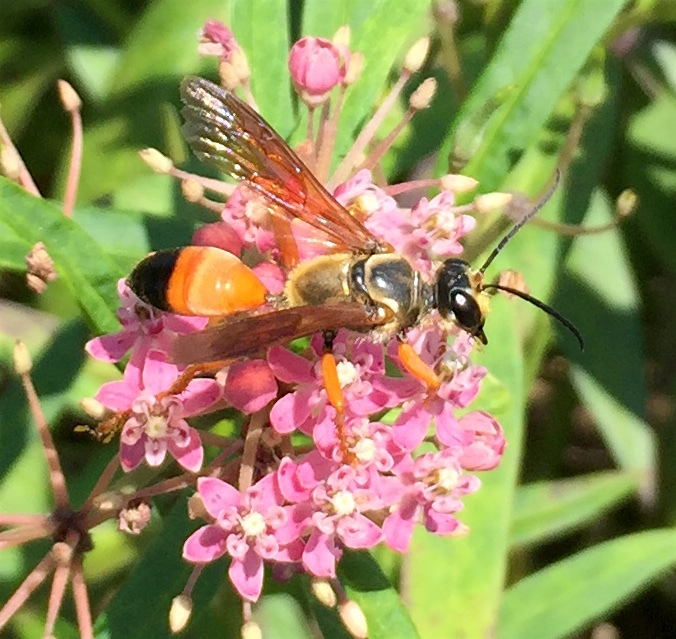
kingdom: Animalia
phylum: Arthropoda
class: Insecta
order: Hymenoptera
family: Sphecidae
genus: Sphex
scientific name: Sphex ichneumoneus
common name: Great golden digger wasp
